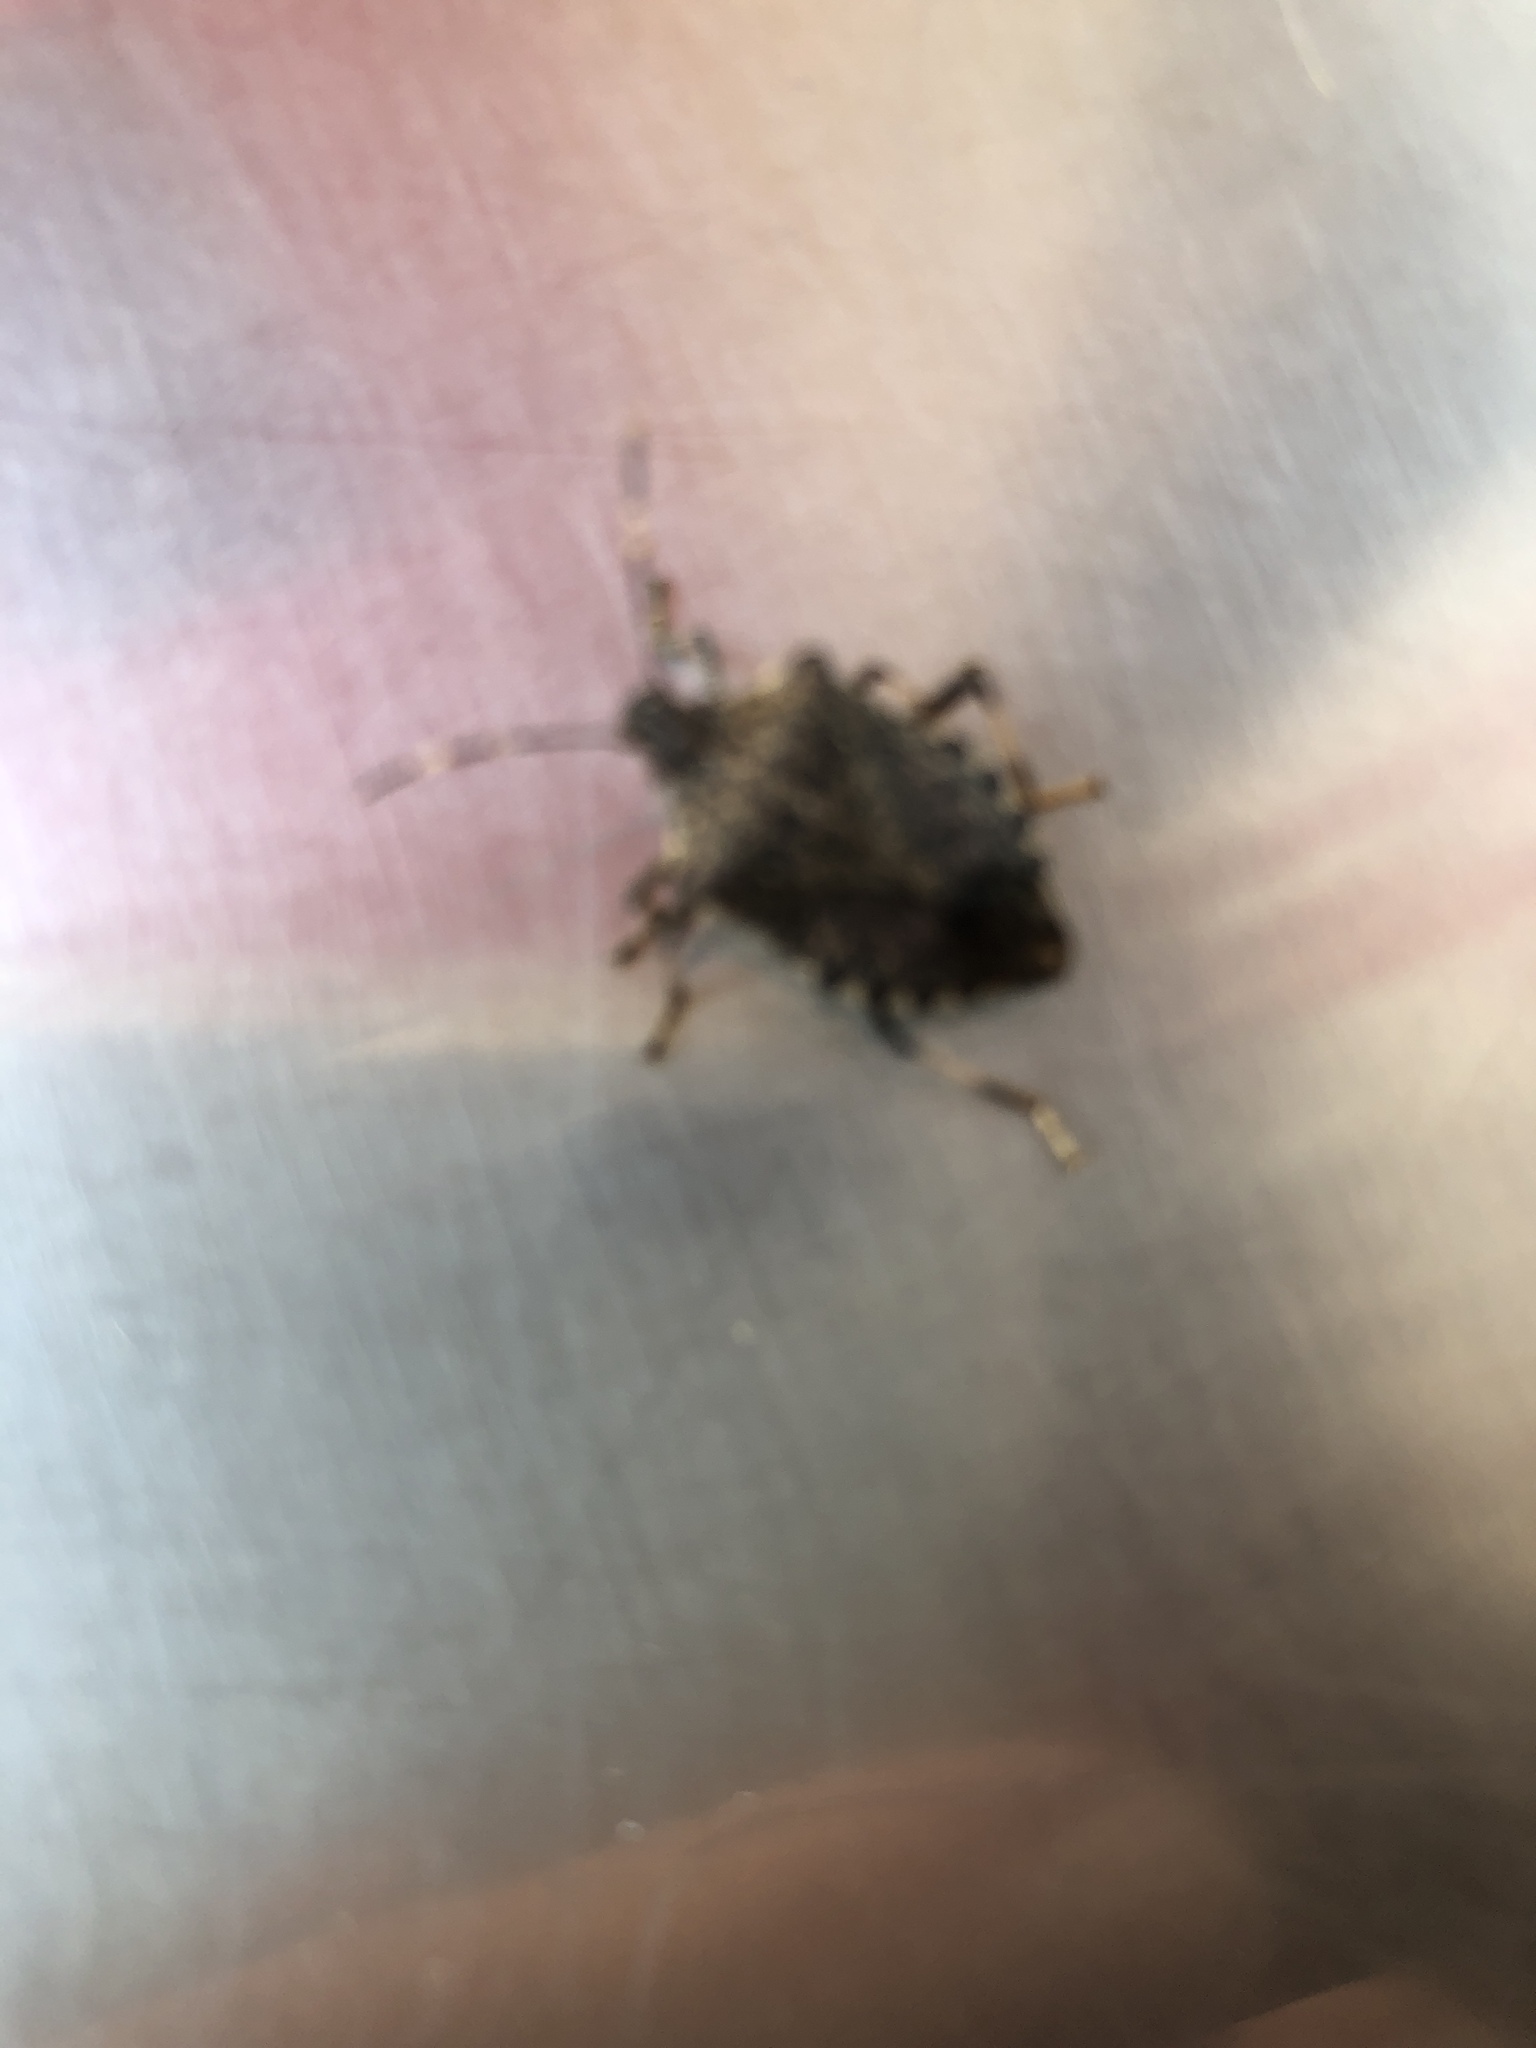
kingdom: Animalia
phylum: Arthropoda
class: Insecta
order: Hemiptera
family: Pentatomidae
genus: Halyomorpha
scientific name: Halyomorpha halys
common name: Brown marmorated stink bug
